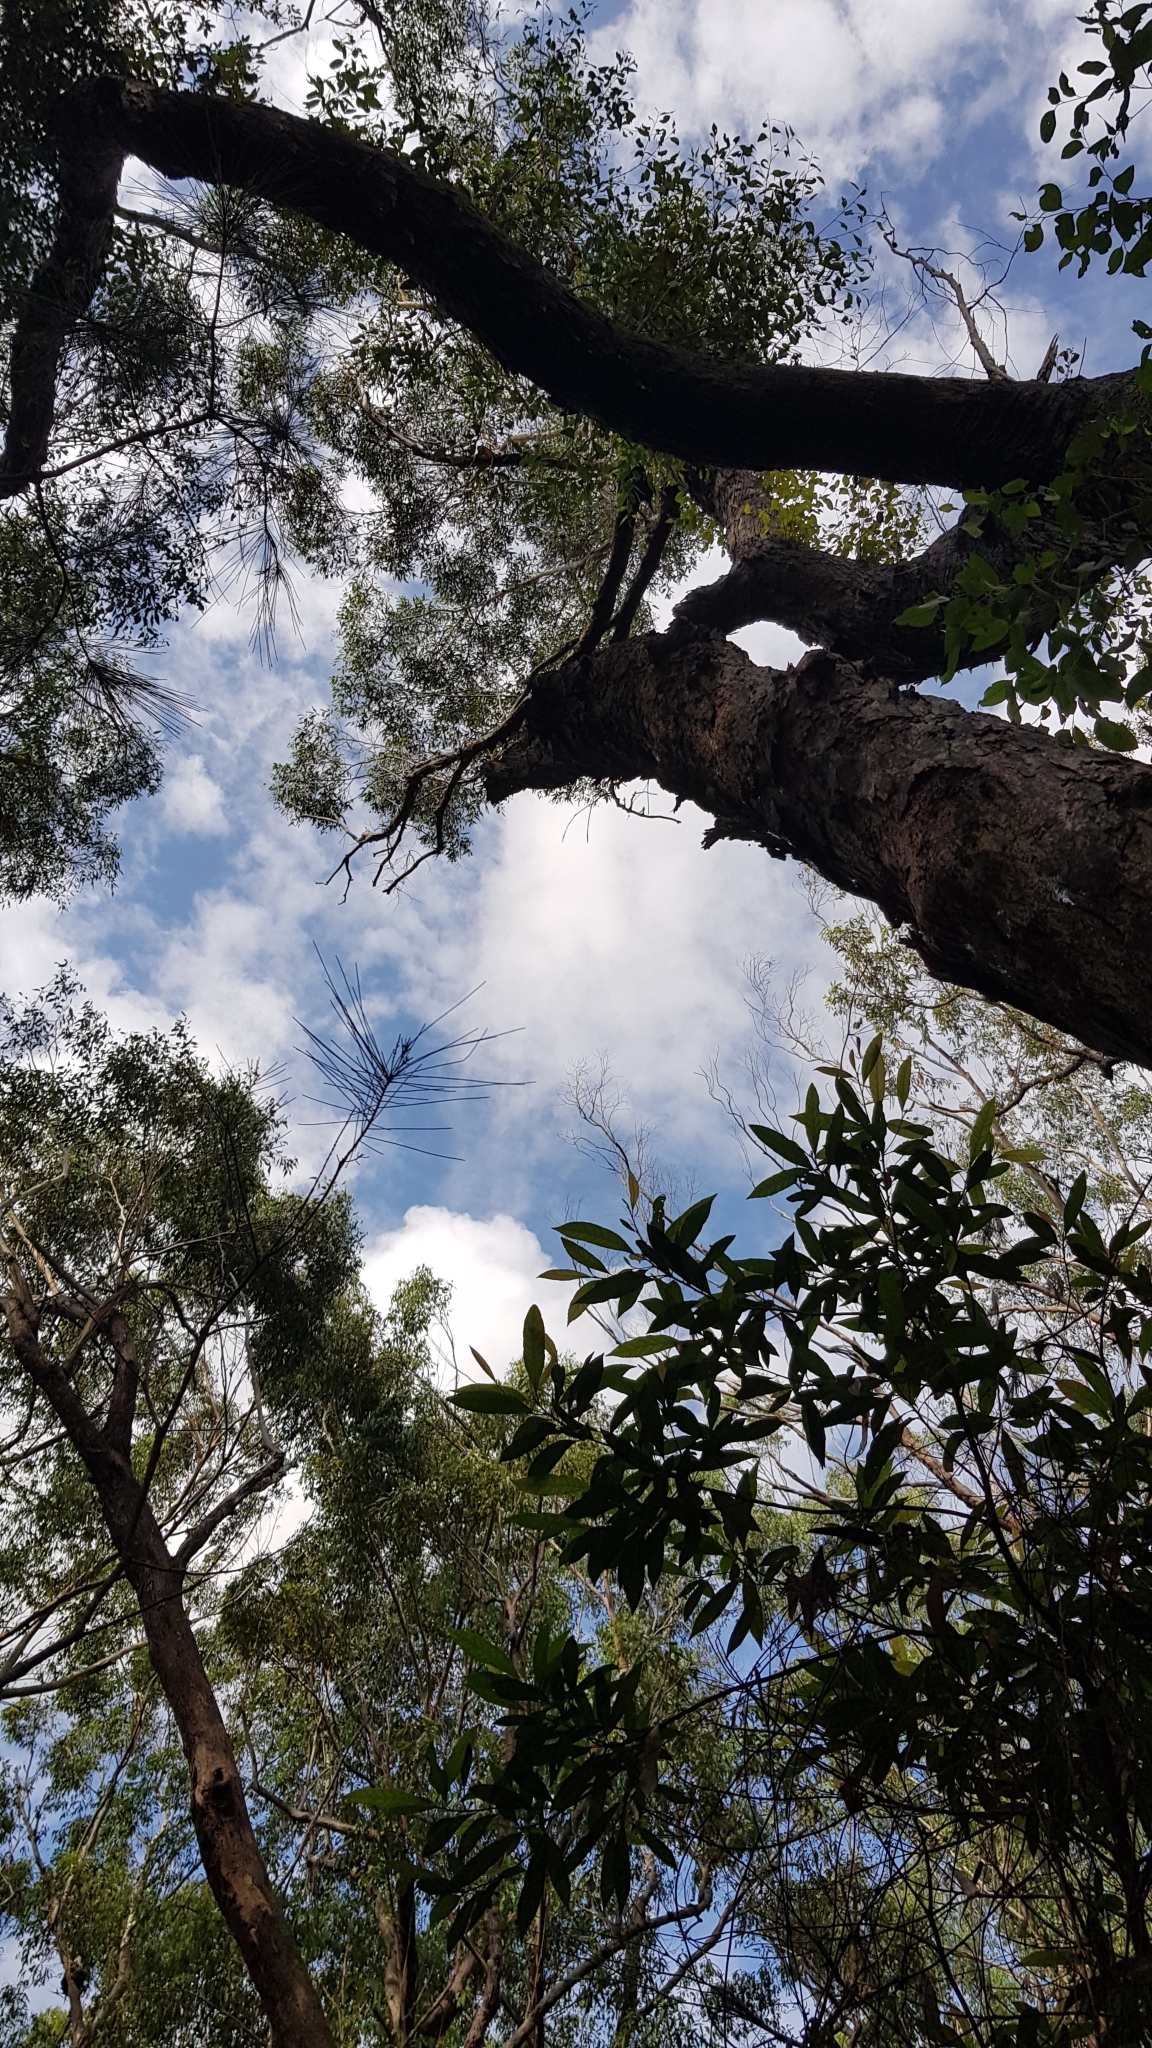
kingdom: Fungi
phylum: Basidiomycota
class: Agaricomycetes
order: Polyporales
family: Laetiporaceae
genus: Laetiporus
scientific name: Laetiporus portentosus
